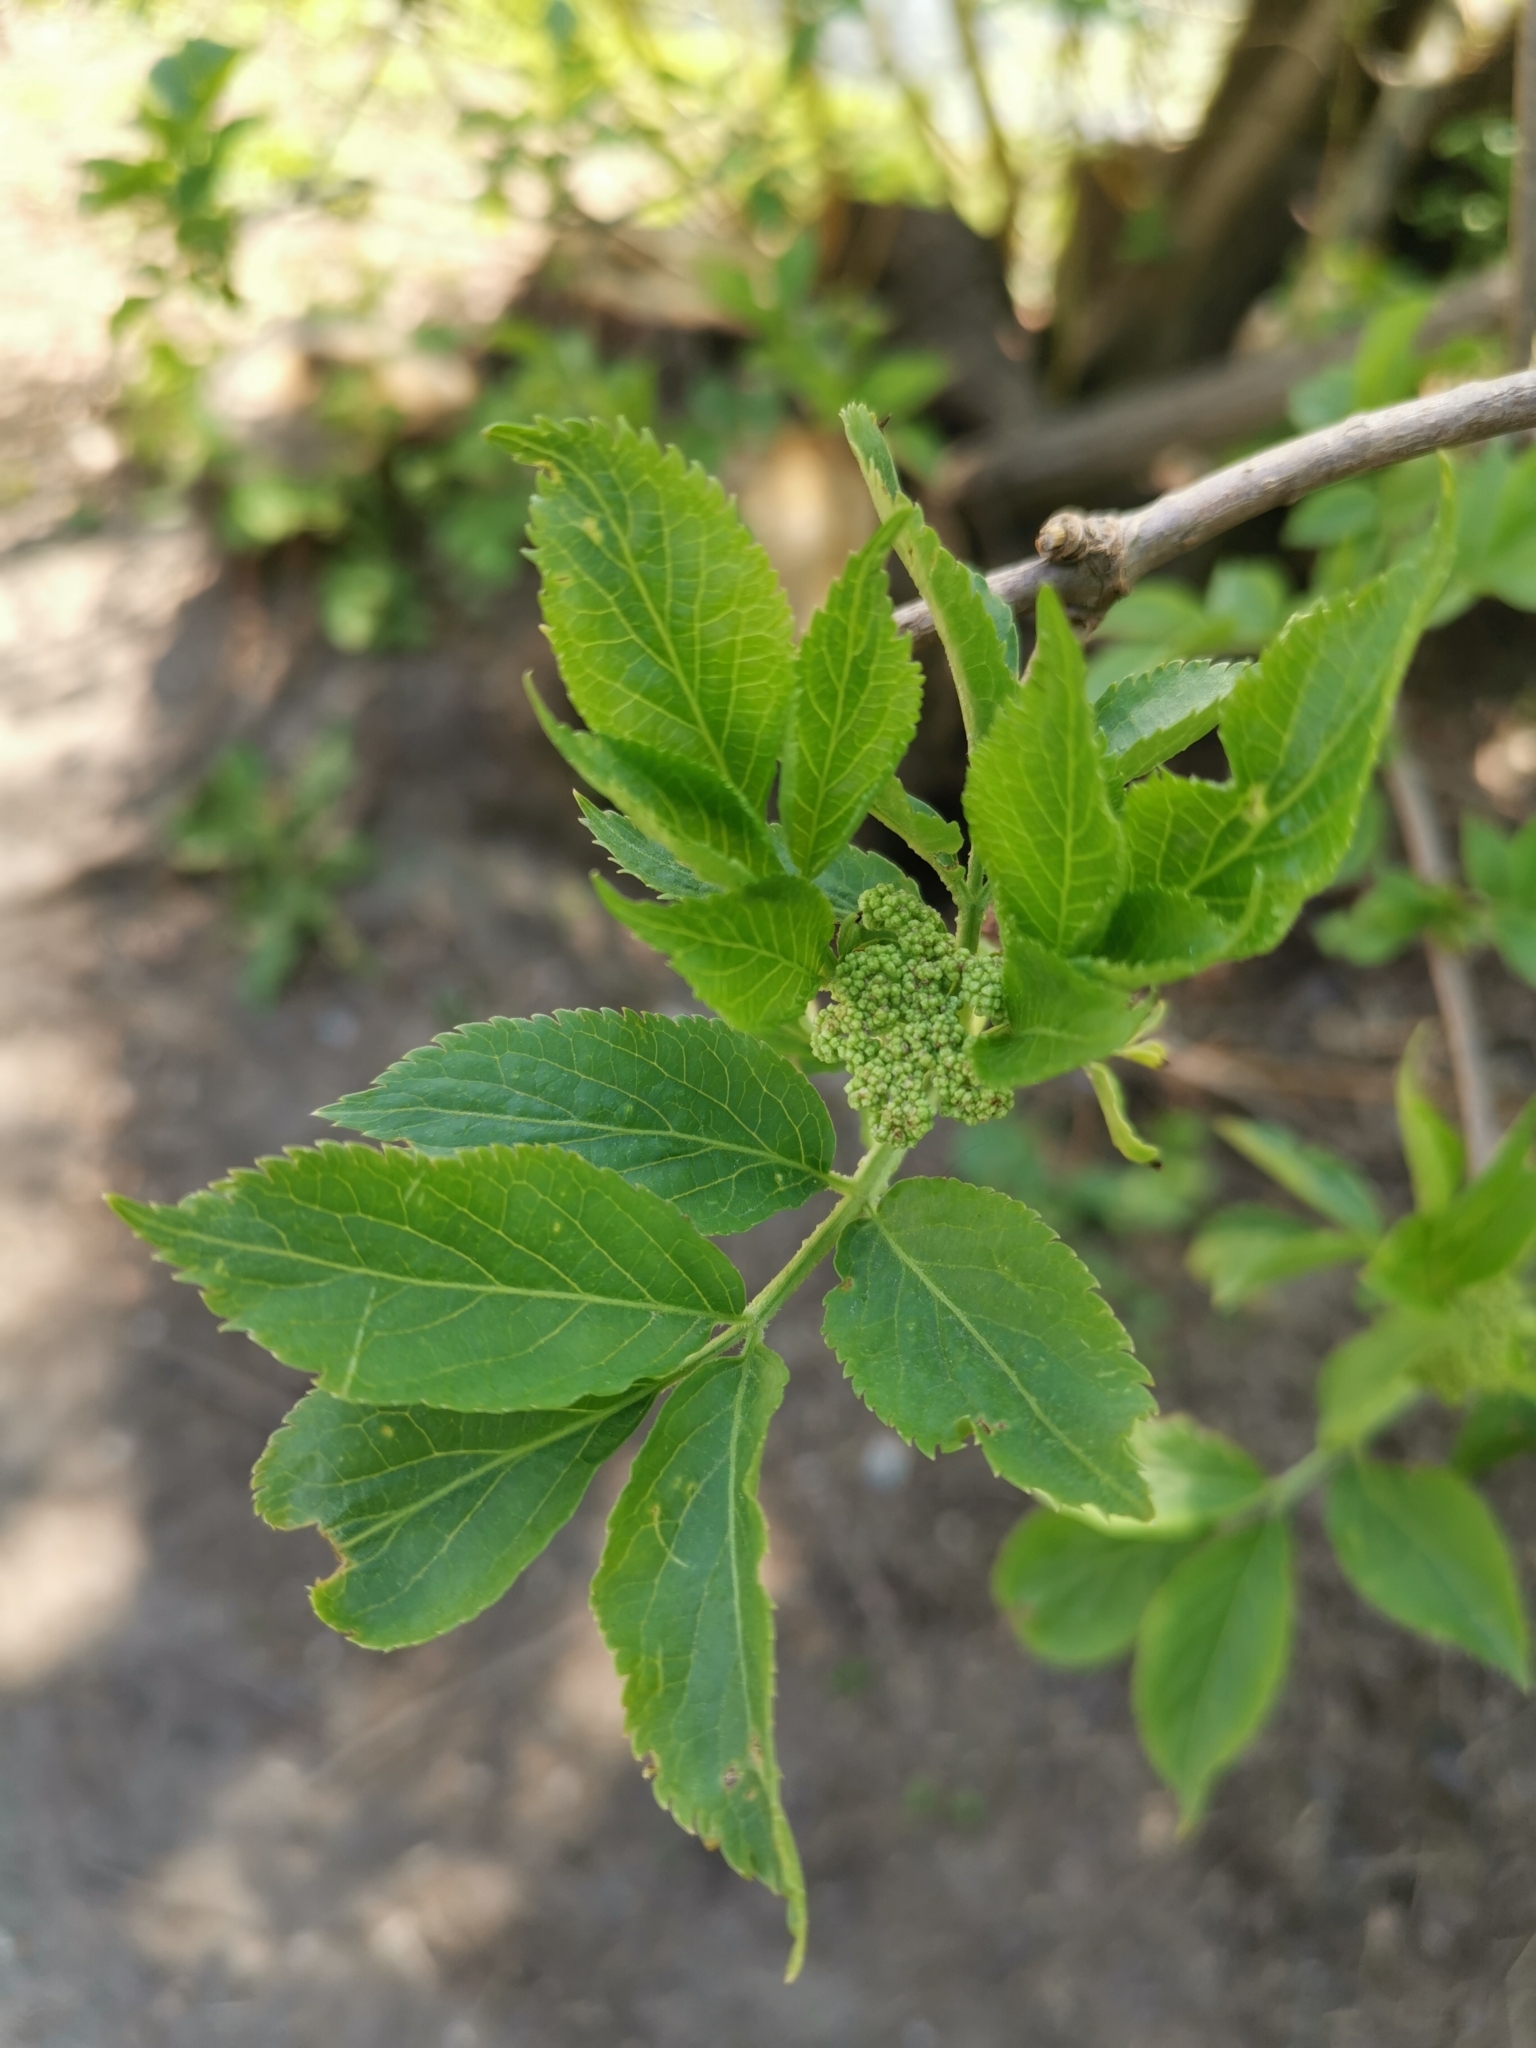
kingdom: Plantae
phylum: Tracheophyta
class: Magnoliopsida
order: Dipsacales
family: Viburnaceae
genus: Sambucus
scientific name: Sambucus nigra
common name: Elder
